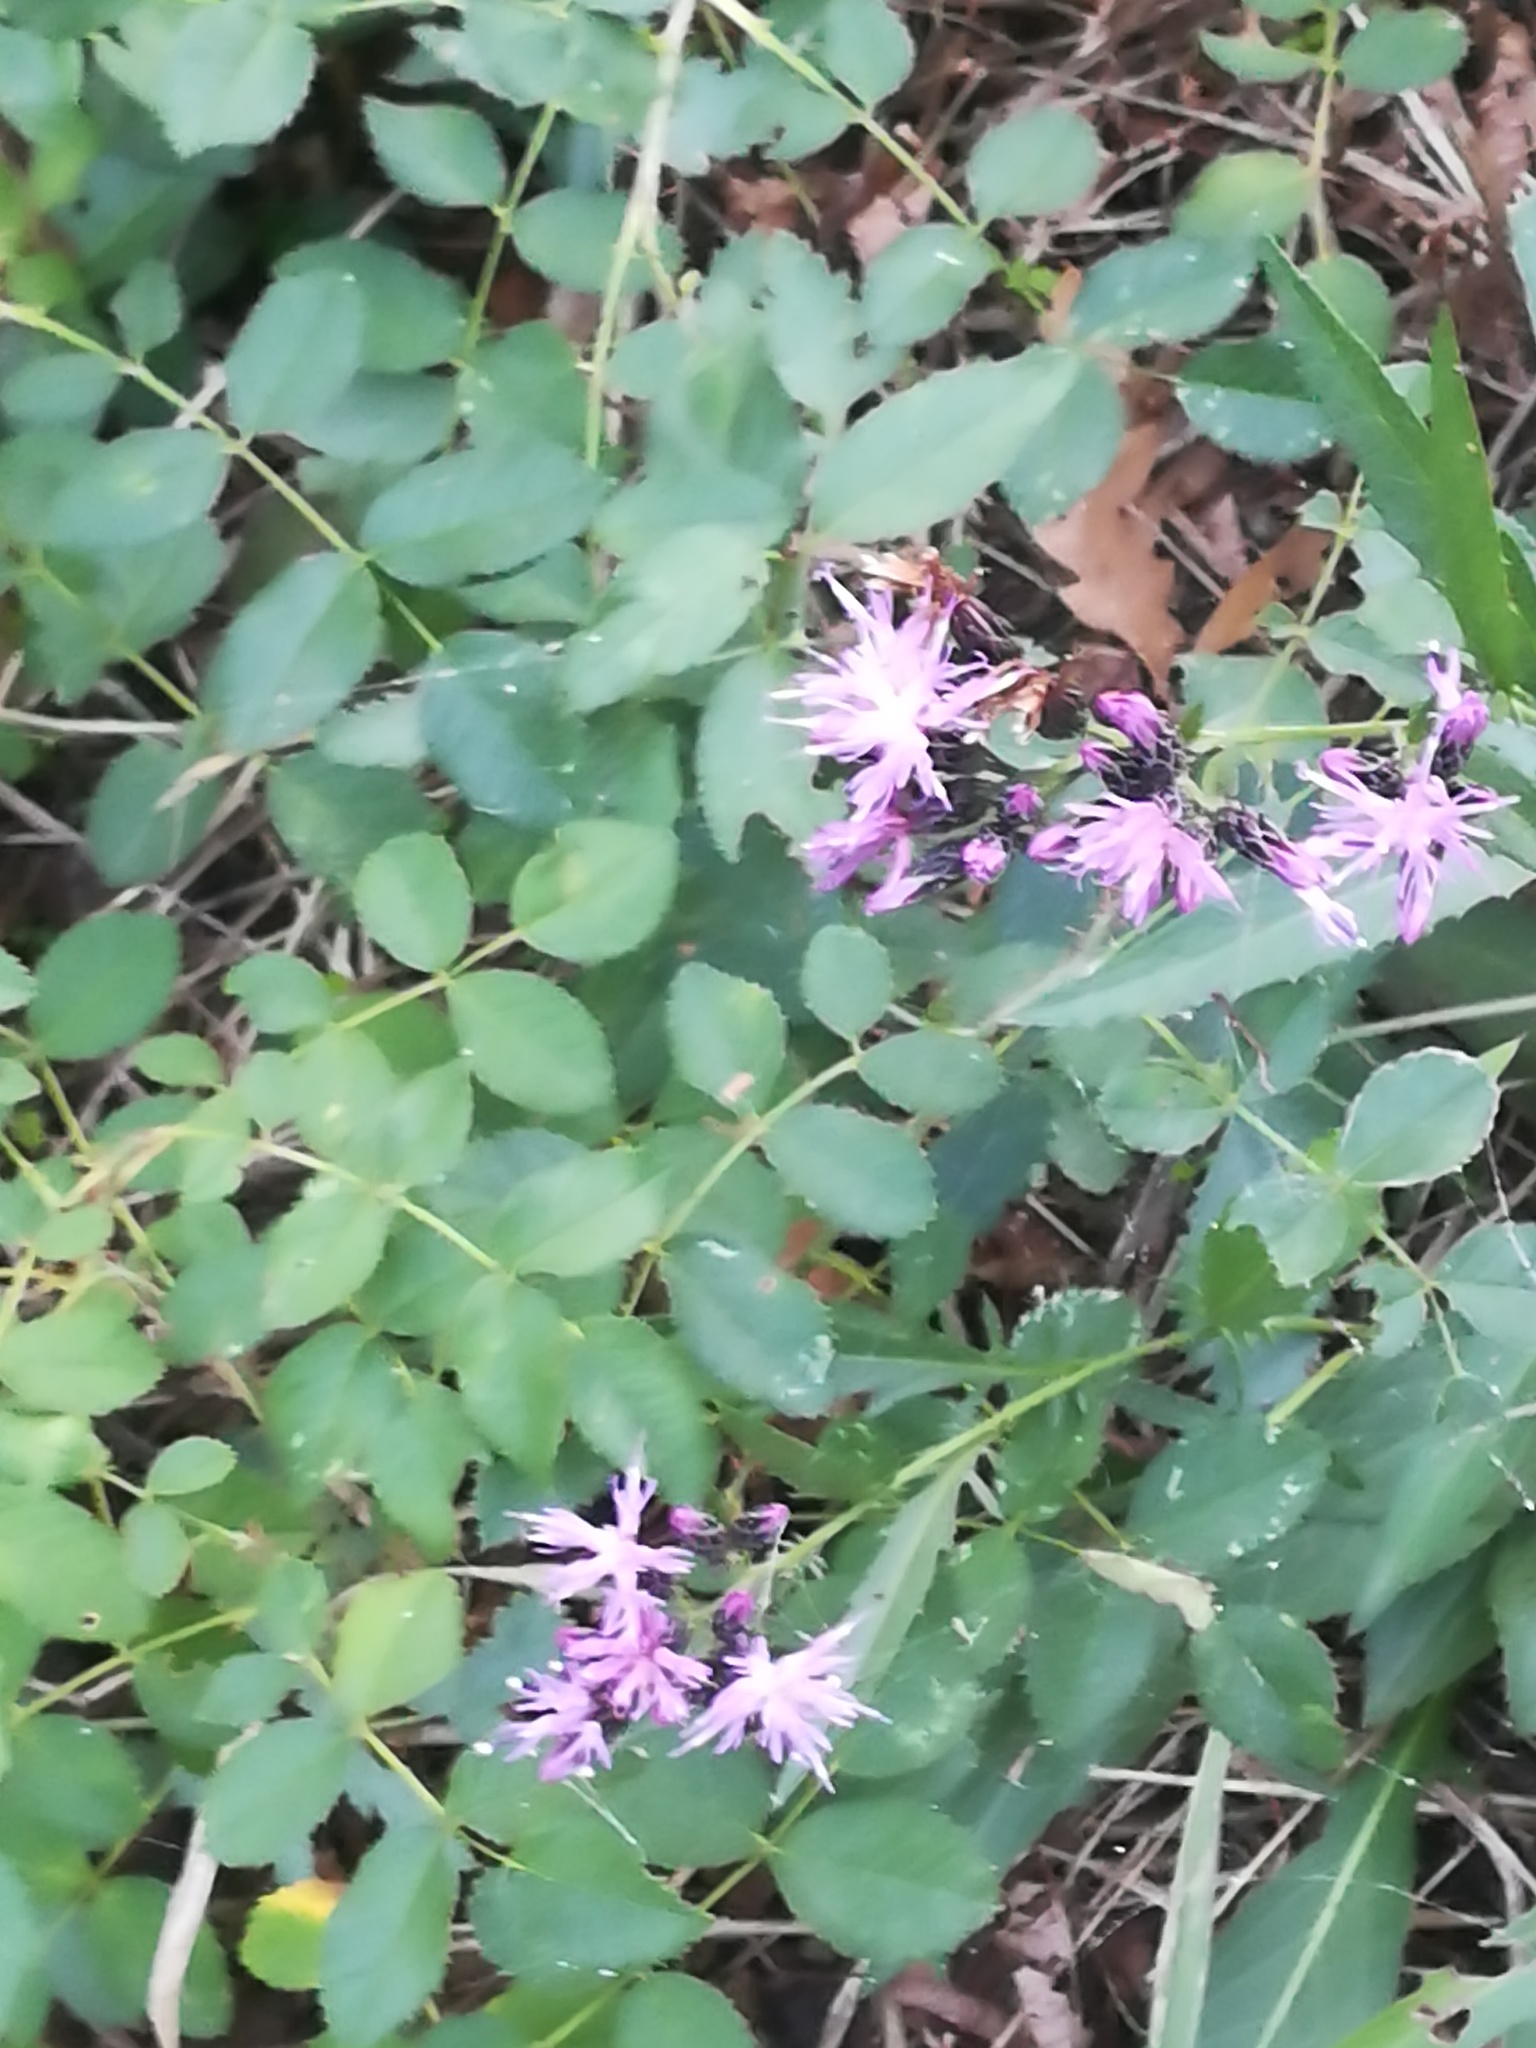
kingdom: Plantae
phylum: Tracheophyta
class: Magnoliopsida
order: Asterales
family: Asteraceae
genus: Serratula
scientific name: Serratula tinctoria
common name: Saw-wort
